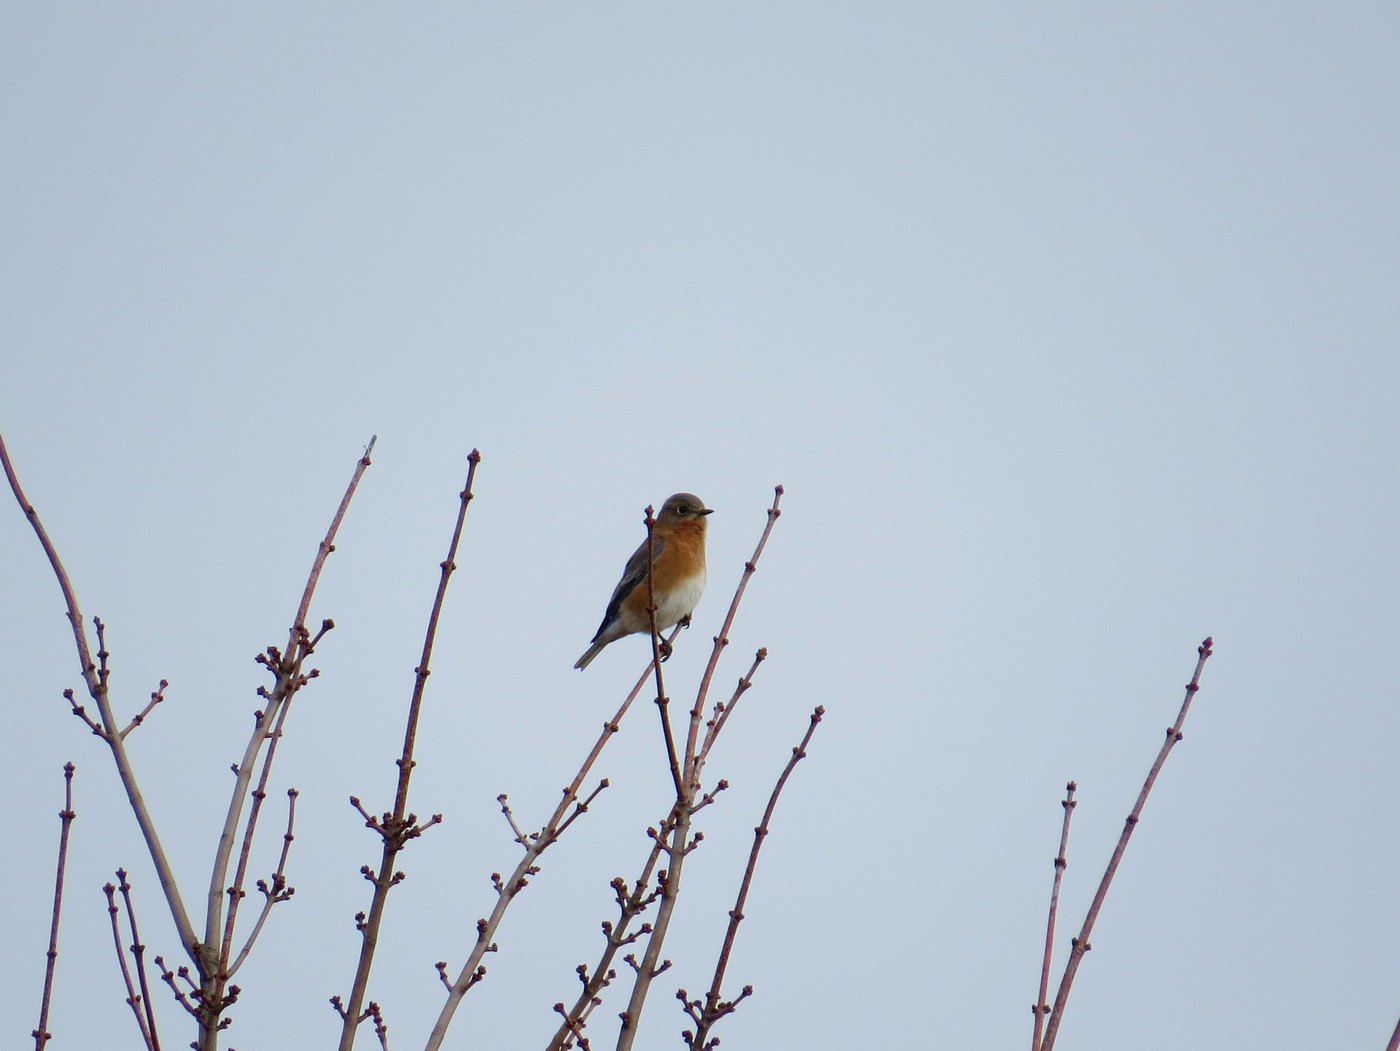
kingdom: Animalia
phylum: Chordata
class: Aves
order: Passeriformes
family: Turdidae
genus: Sialia
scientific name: Sialia sialis
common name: Eastern bluebird
